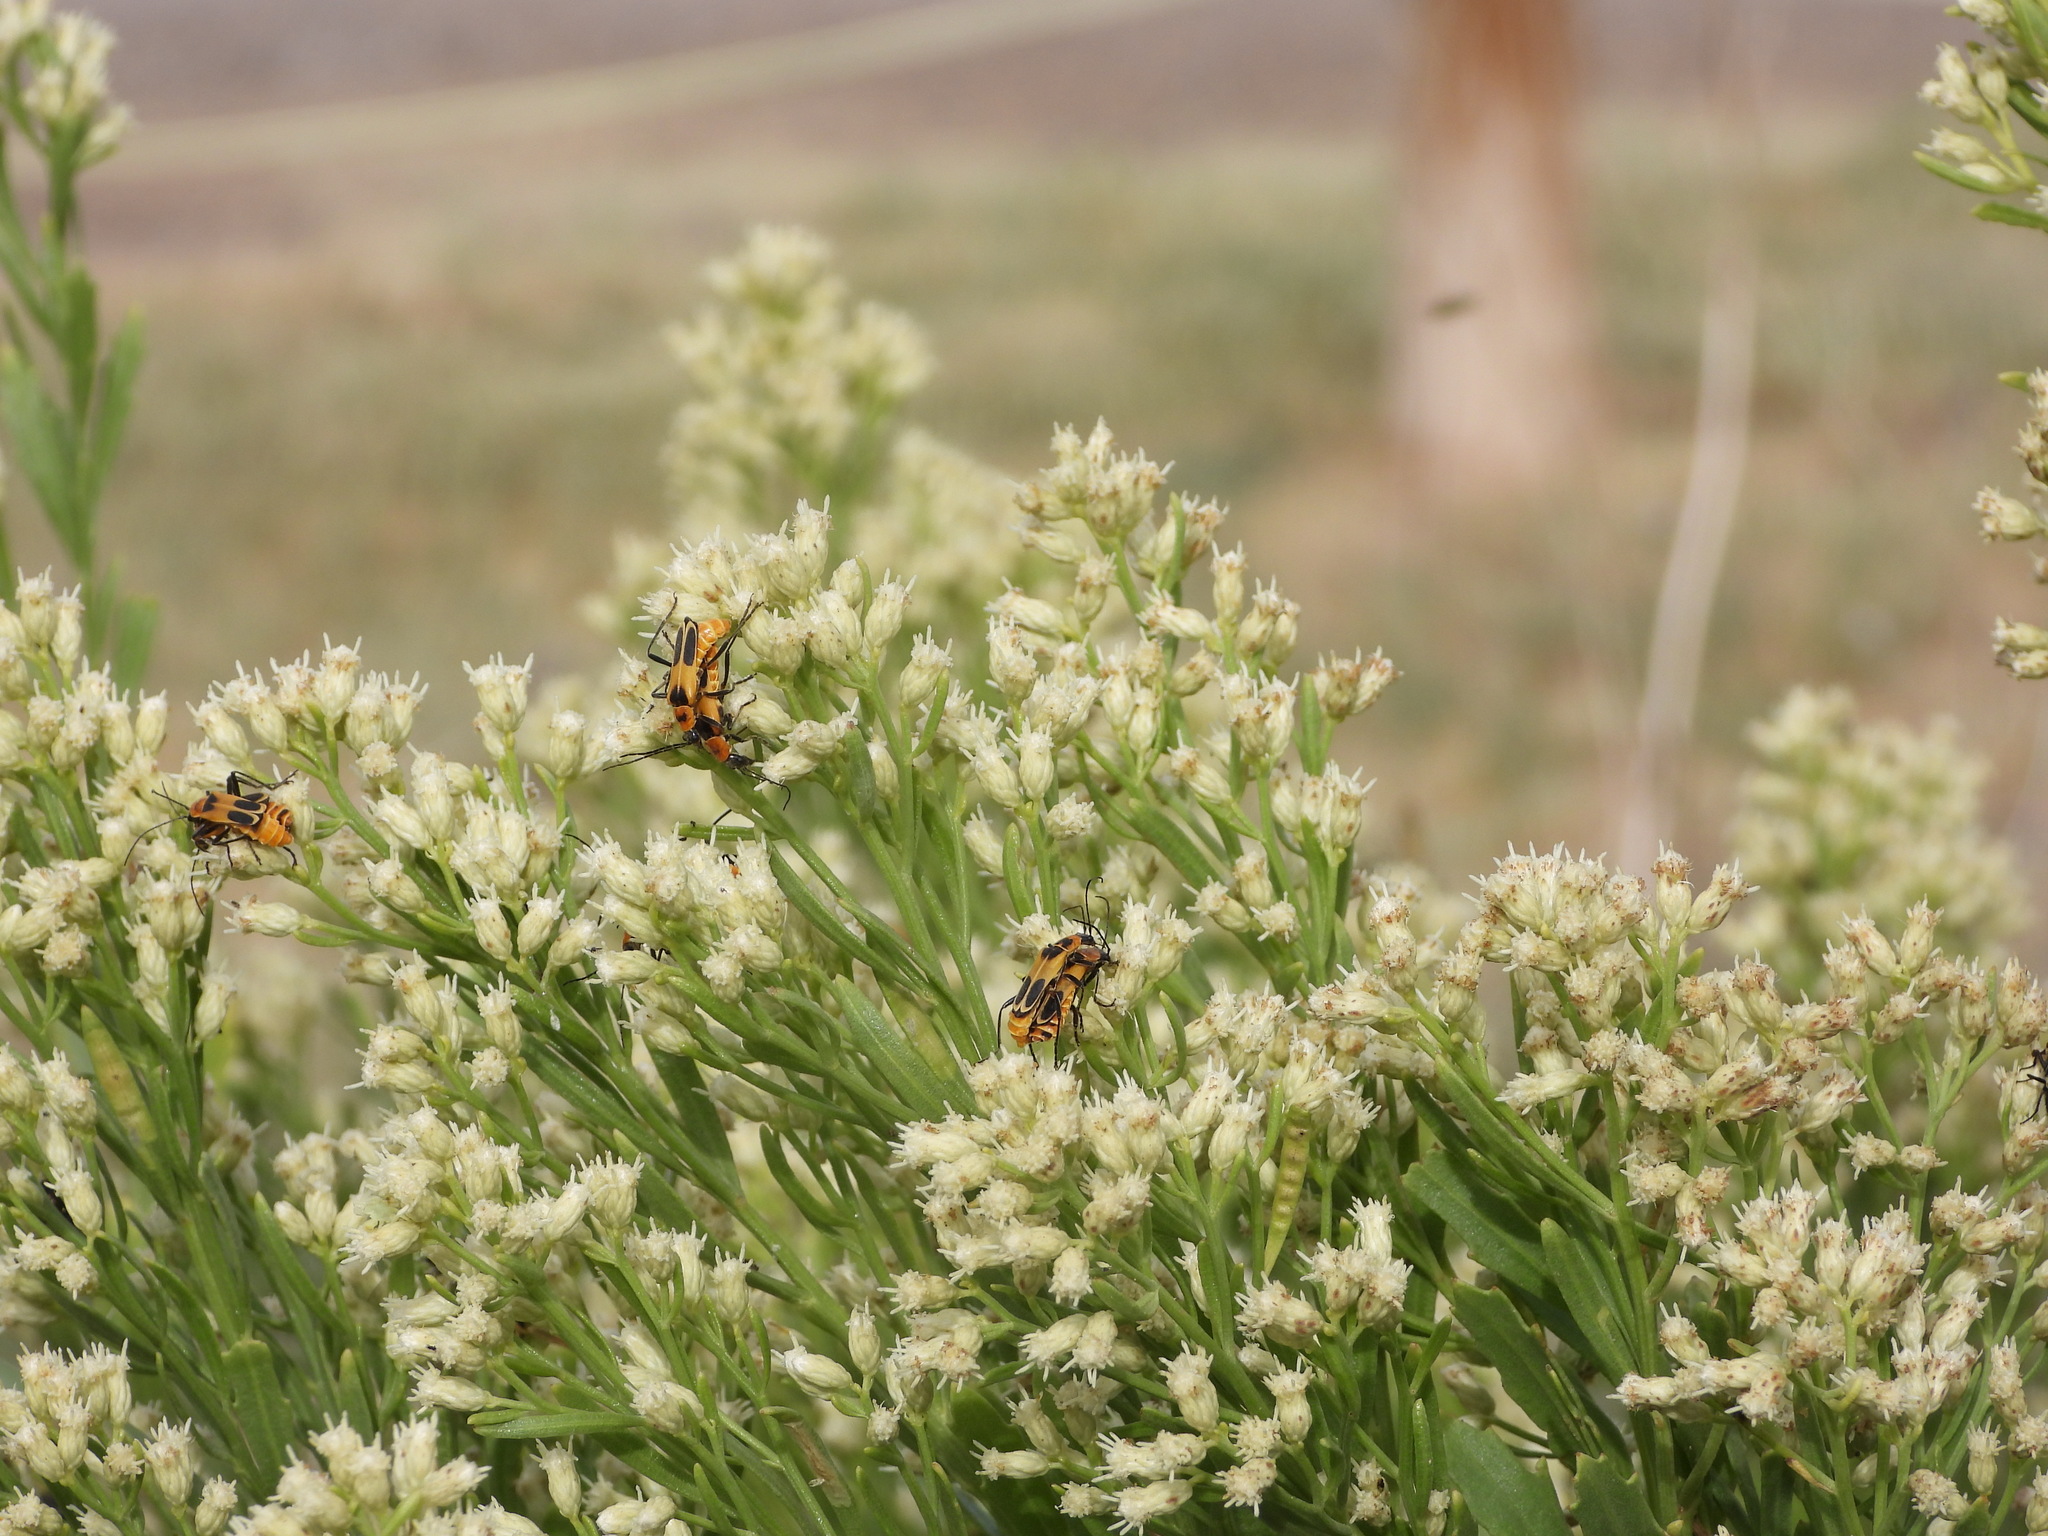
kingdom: Animalia
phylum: Arthropoda
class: Insecta
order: Coleoptera
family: Cantharidae
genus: Chauliognathus
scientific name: Chauliognathus omissus
